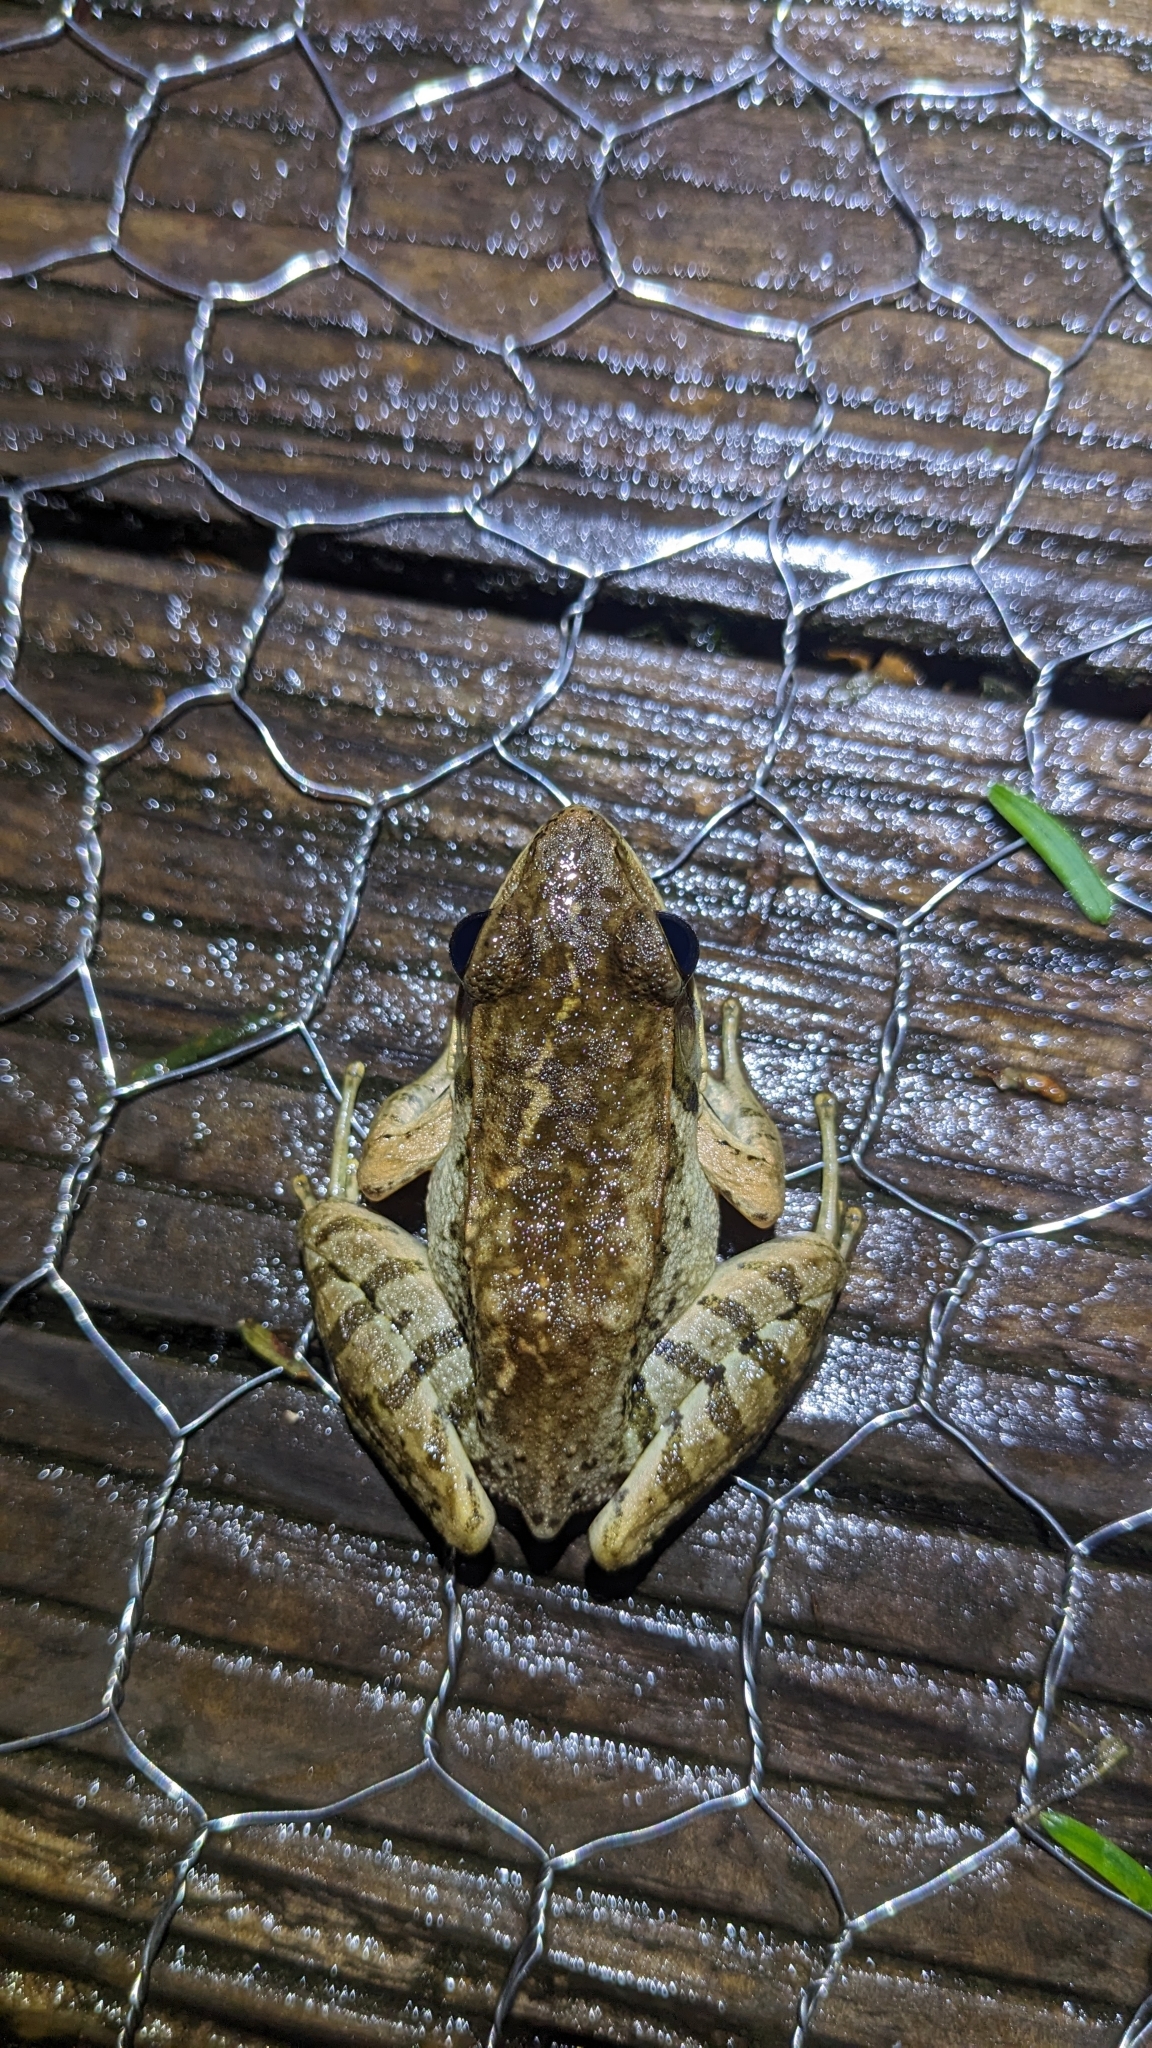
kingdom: Animalia
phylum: Chordata
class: Amphibia
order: Anura
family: Ranidae
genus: Nidirana
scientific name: Nidirana adenopleura
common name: Olive frog
